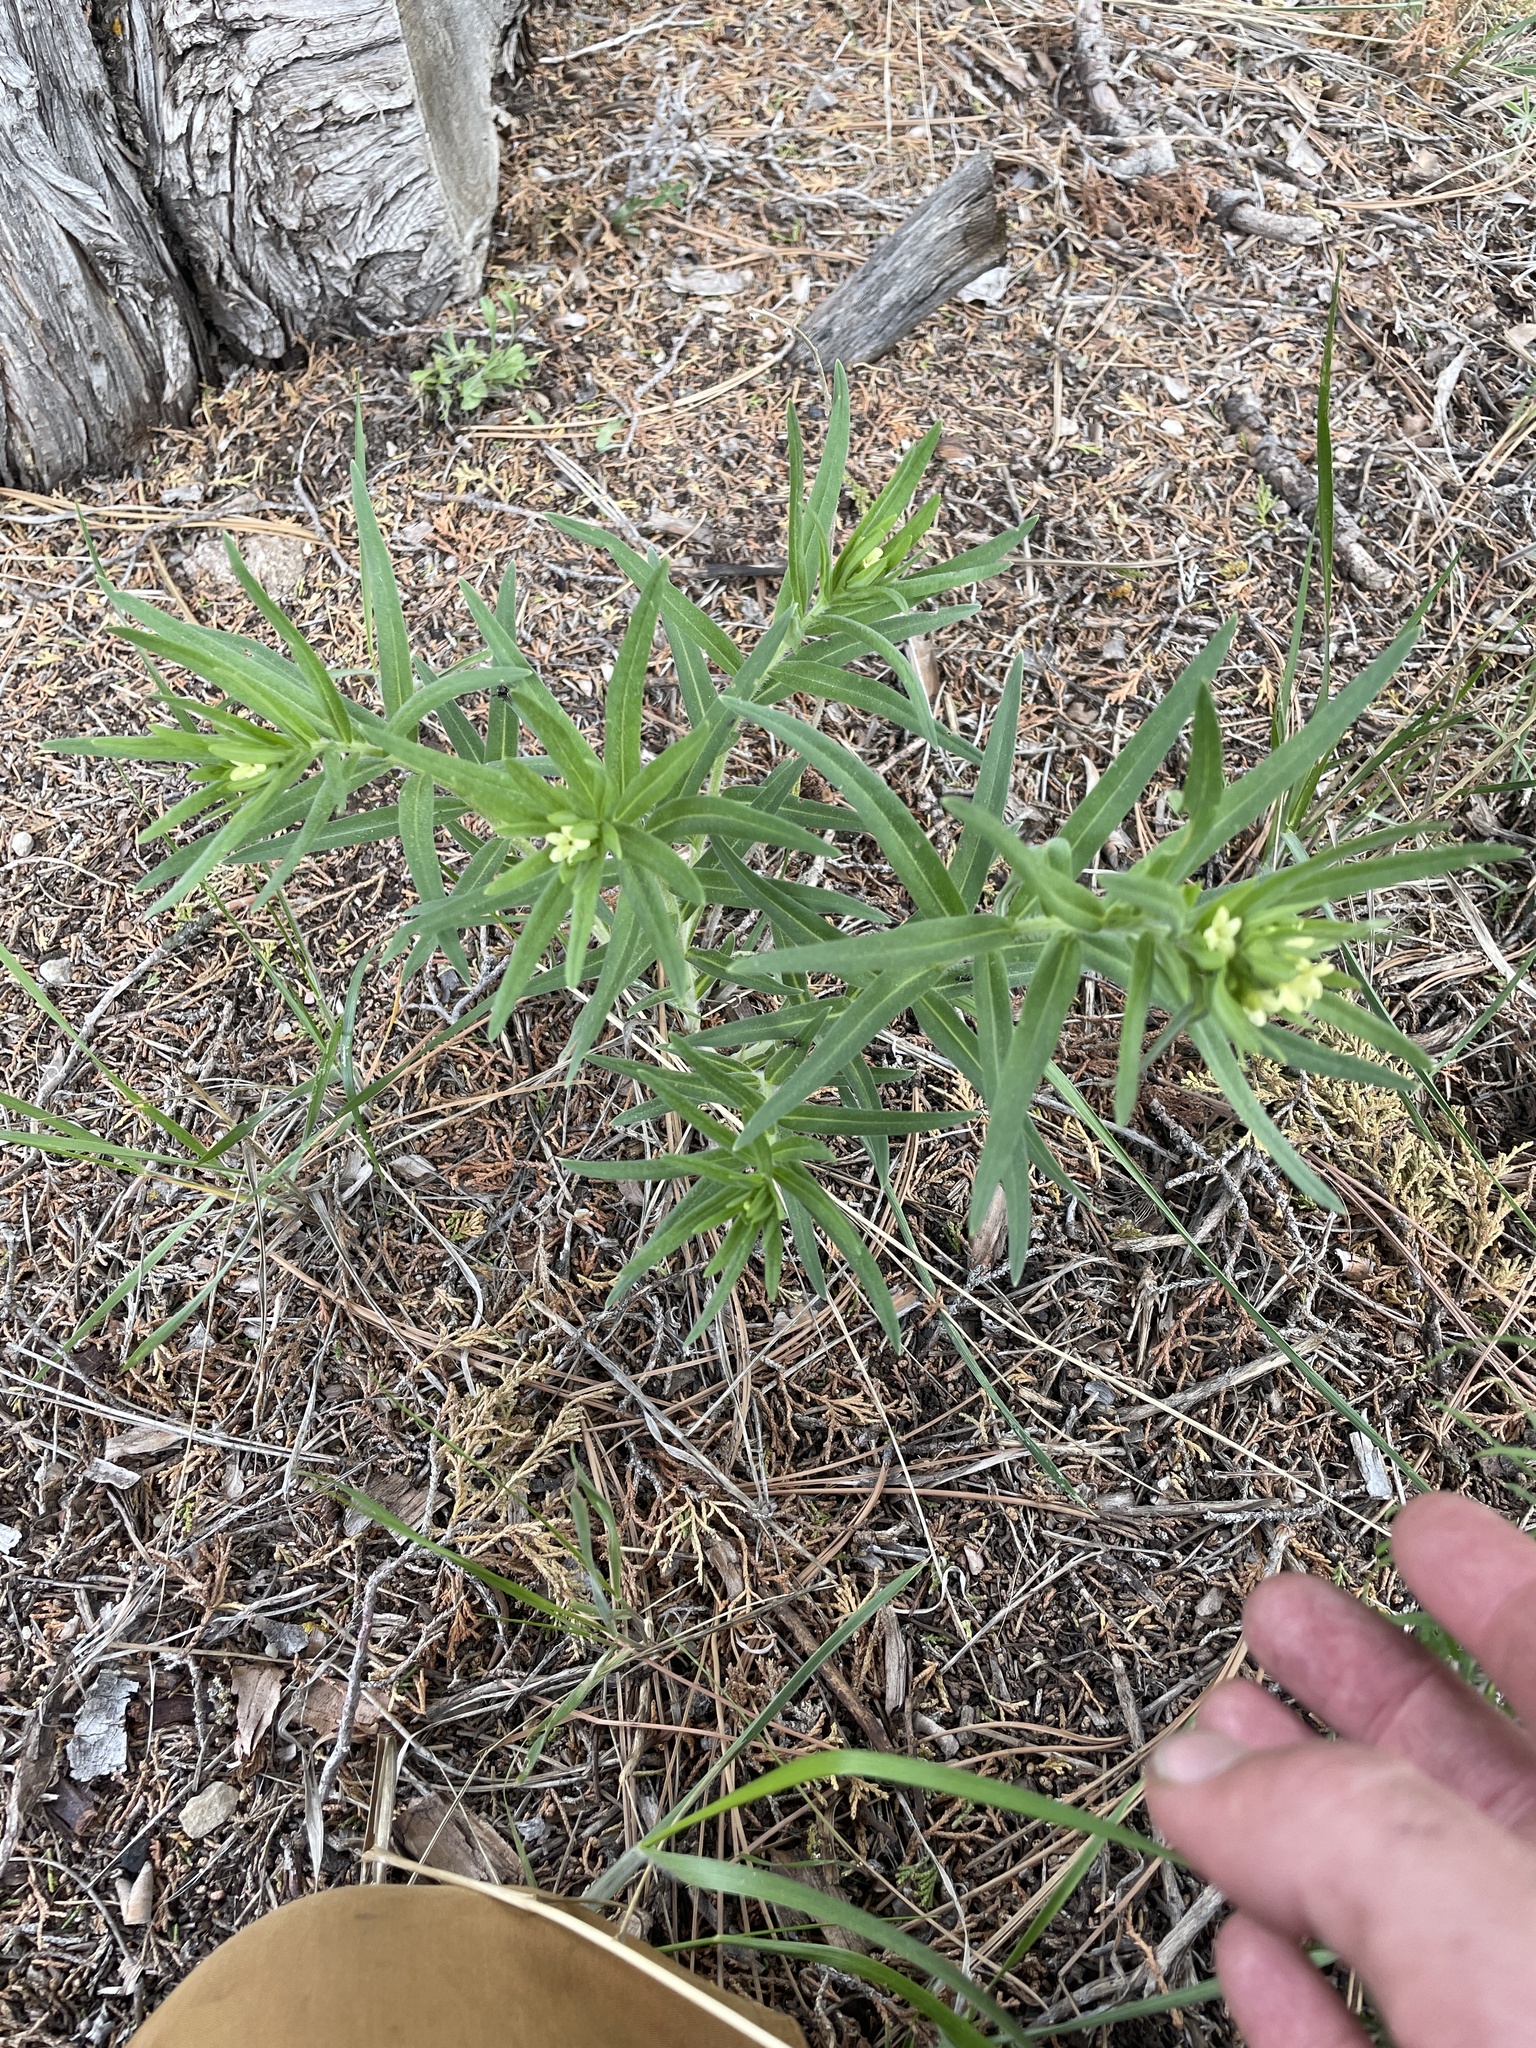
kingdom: Plantae
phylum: Tracheophyta
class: Magnoliopsida
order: Boraginales
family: Boraginaceae
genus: Lithospermum
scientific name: Lithospermum ruderale
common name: Western gromwell
